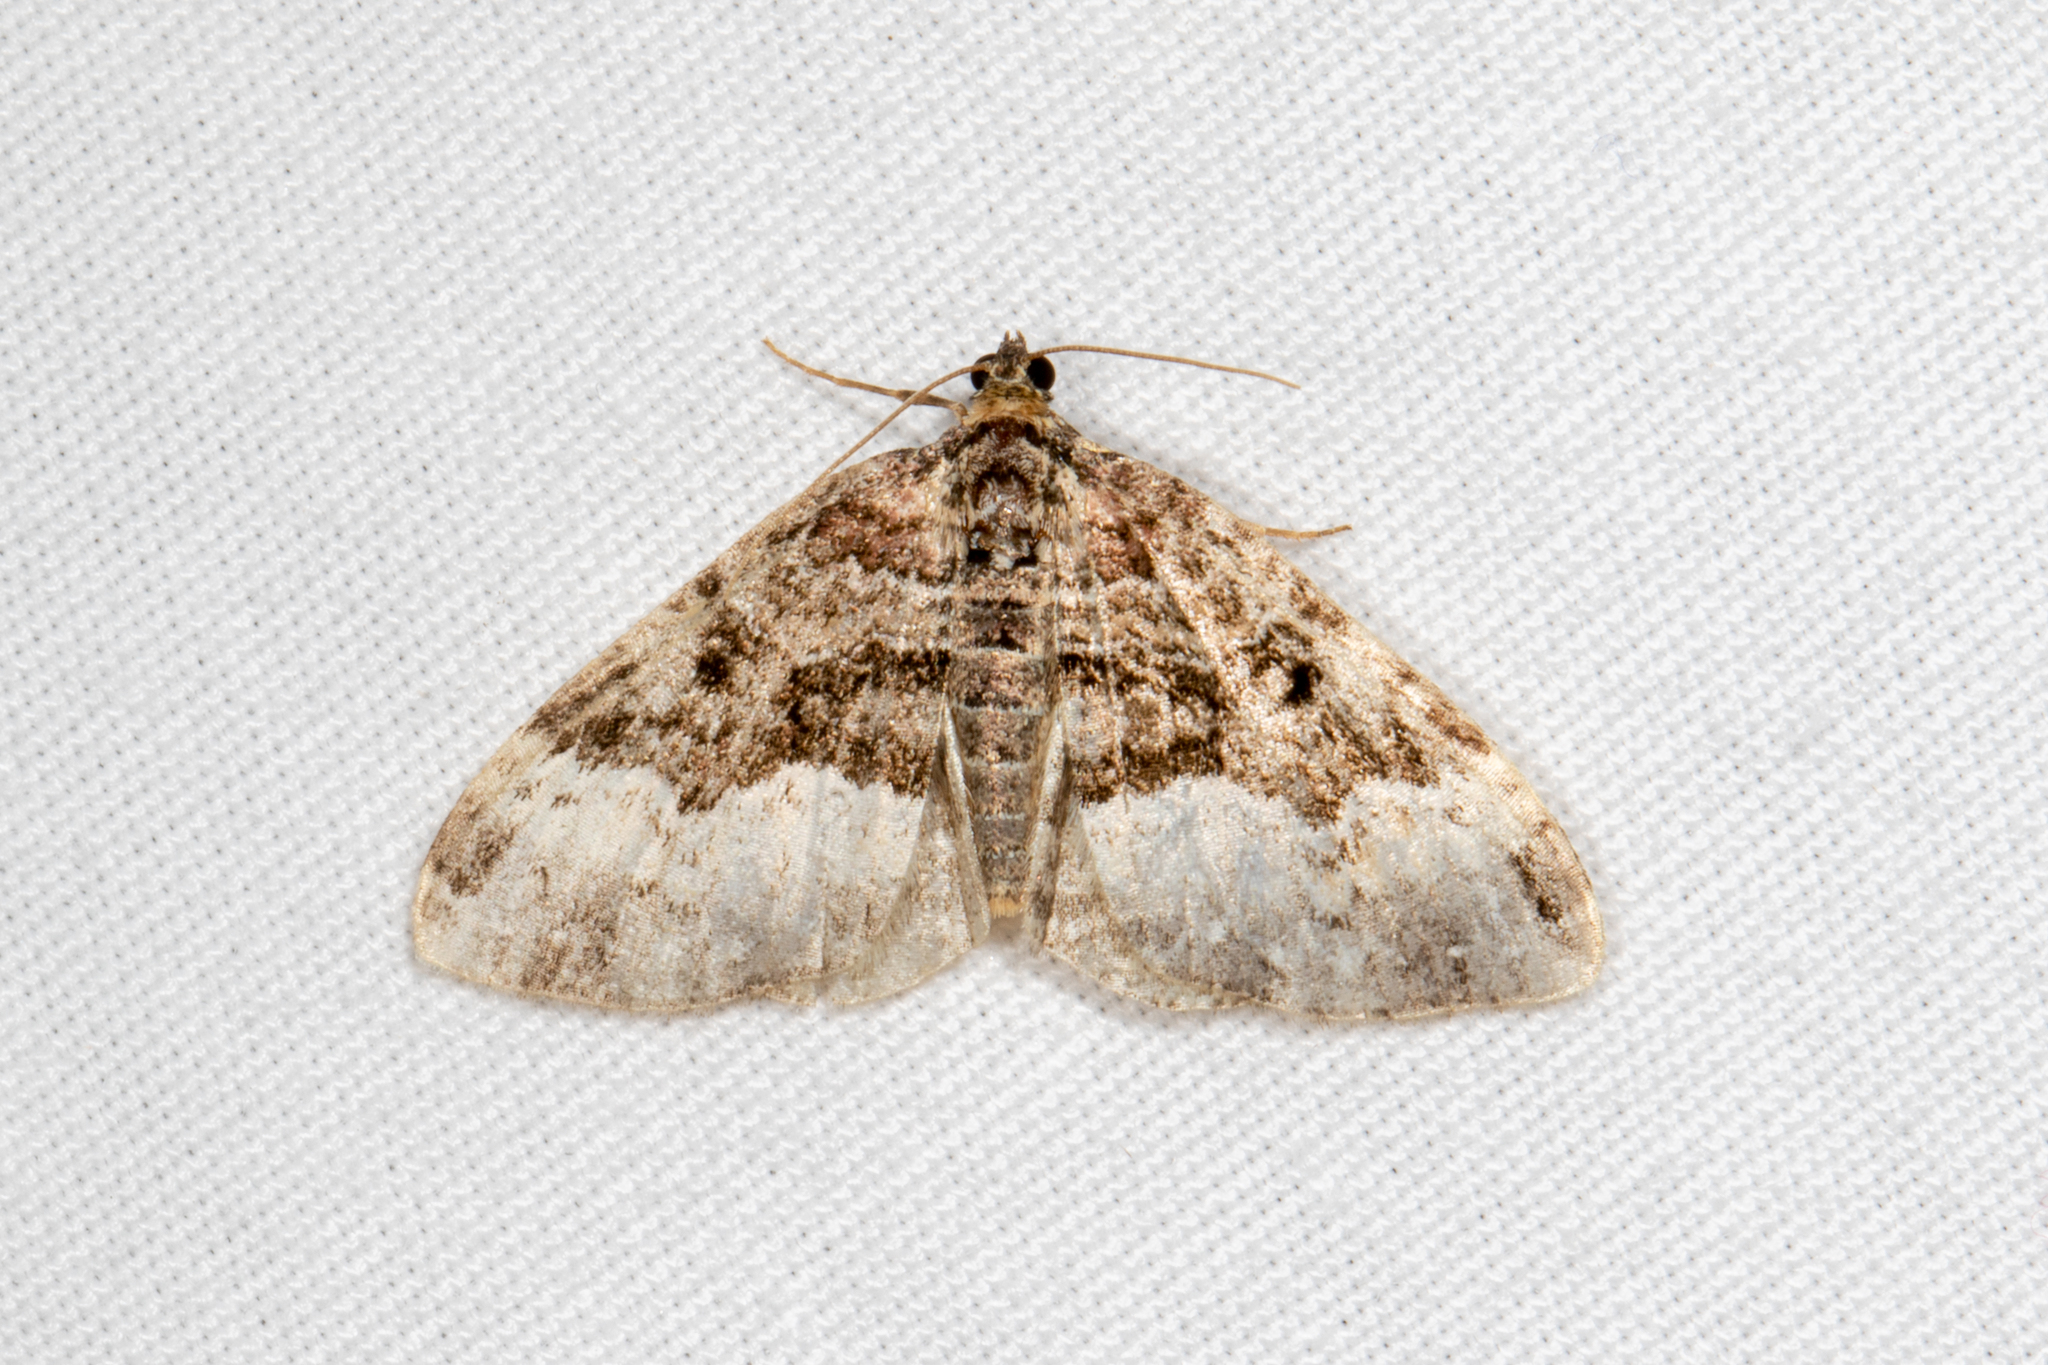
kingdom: Animalia
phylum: Arthropoda
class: Insecta
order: Lepidoptera
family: Geometridae
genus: Euphyia
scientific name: Euphyia intermediata
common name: Sharp-angled carpet
